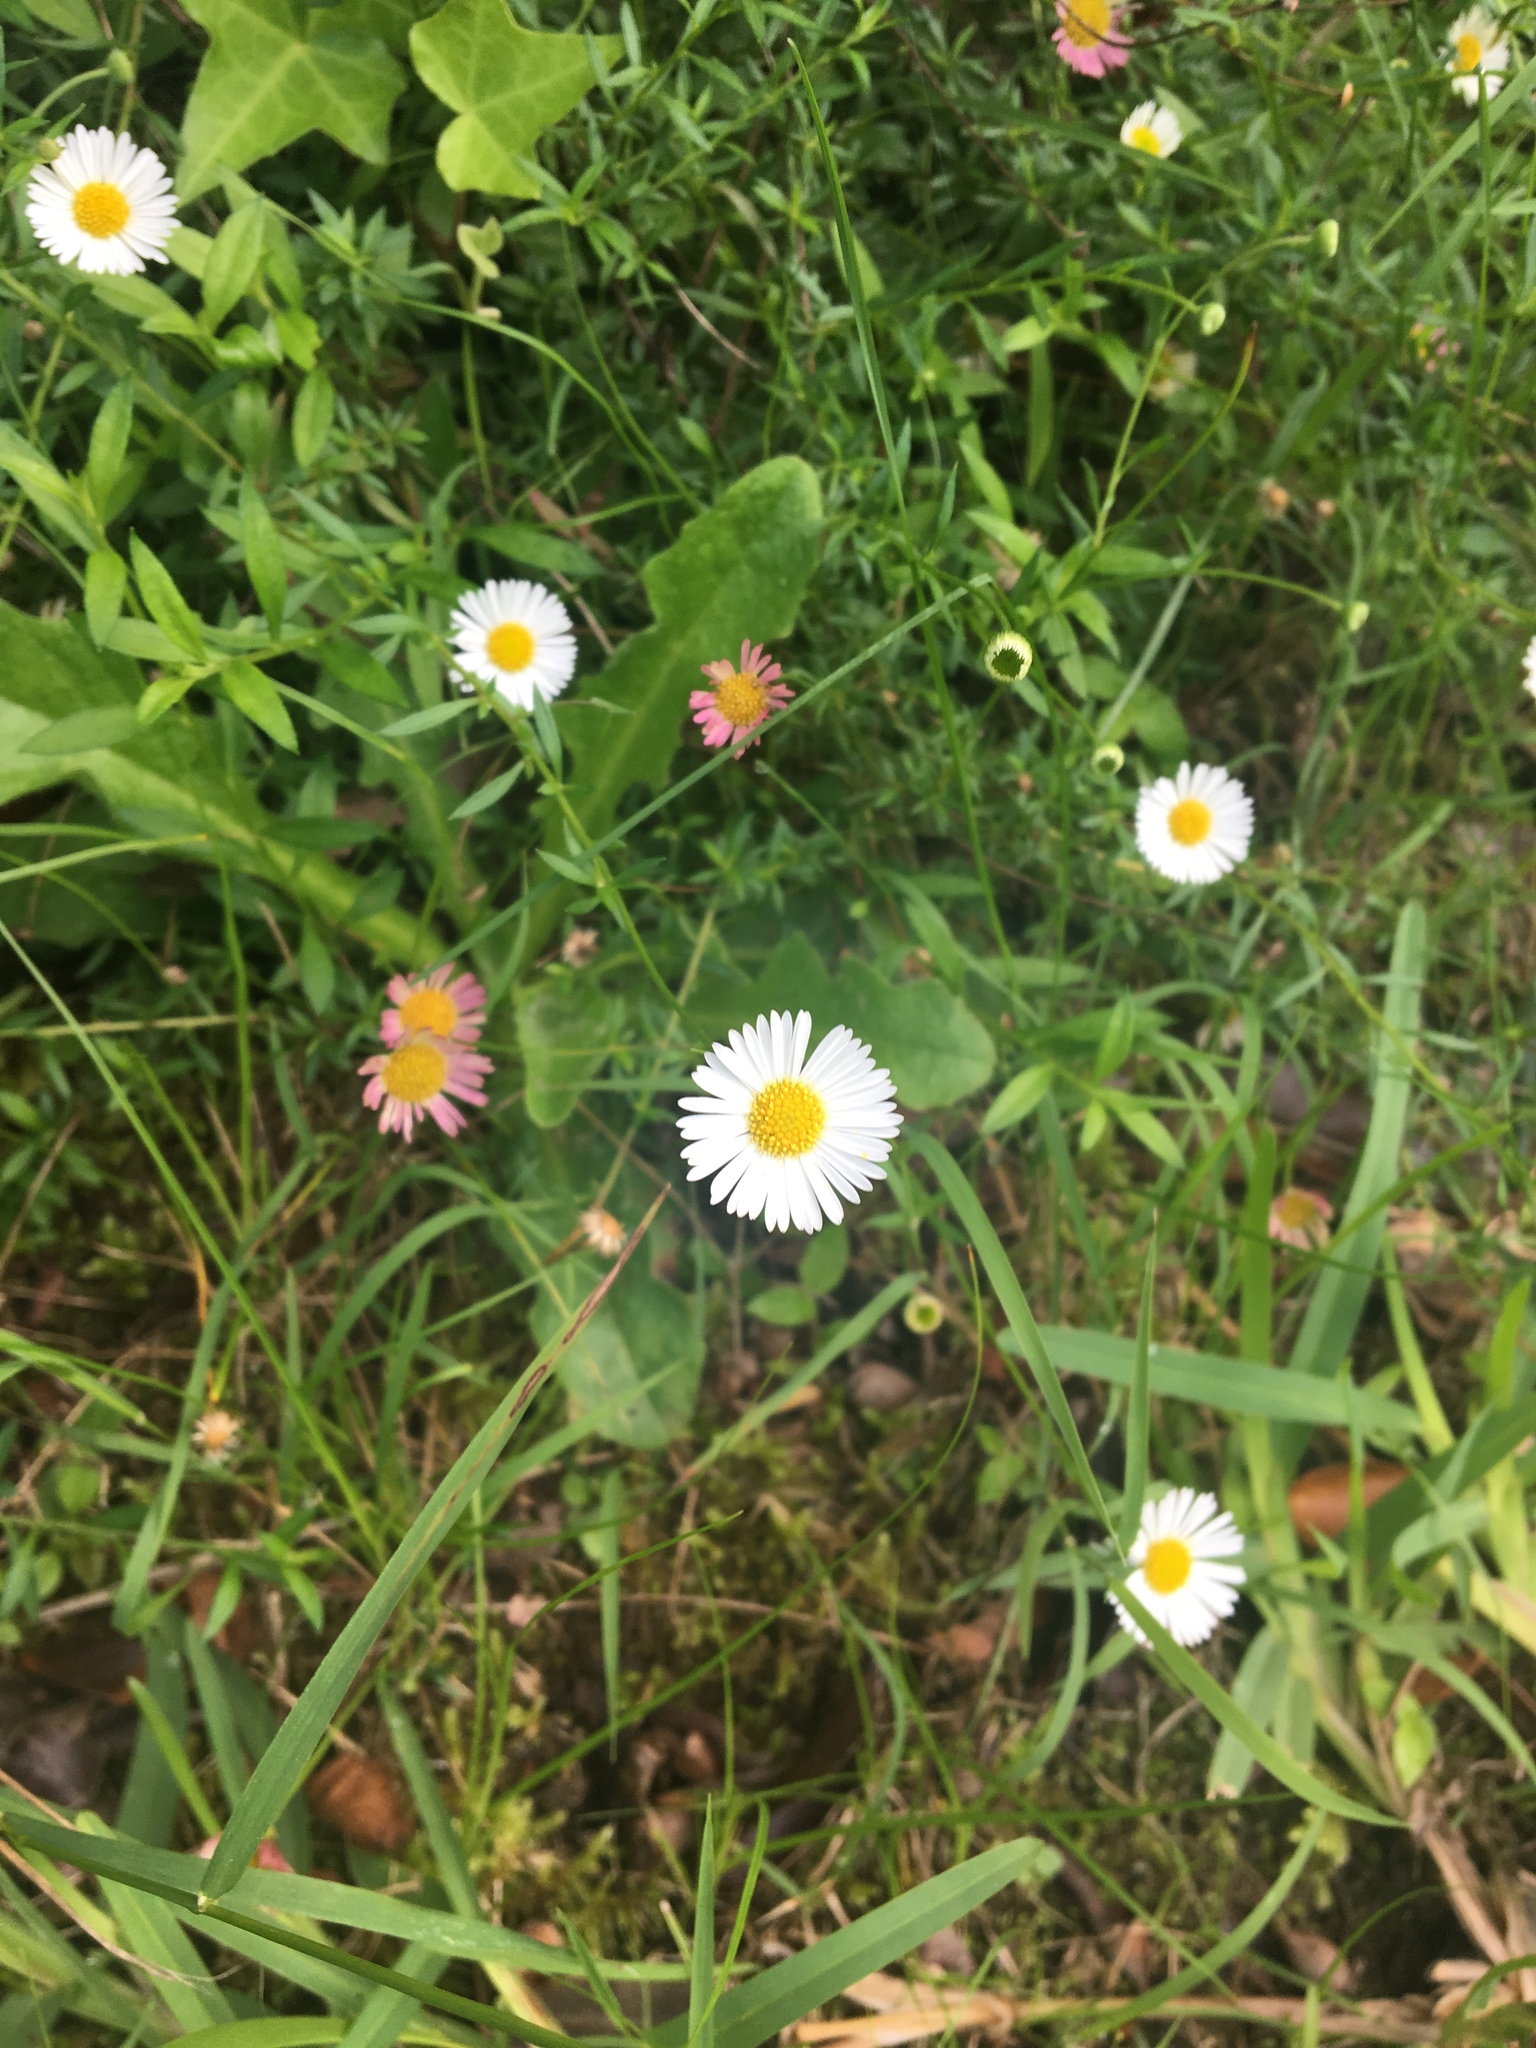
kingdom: Plantae
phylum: Tracheophyta
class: Magnoliopsida
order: Asterales
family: Asteraceae
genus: Erigeron
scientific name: Erigeron karvinskianus
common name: Mexican fleabane
